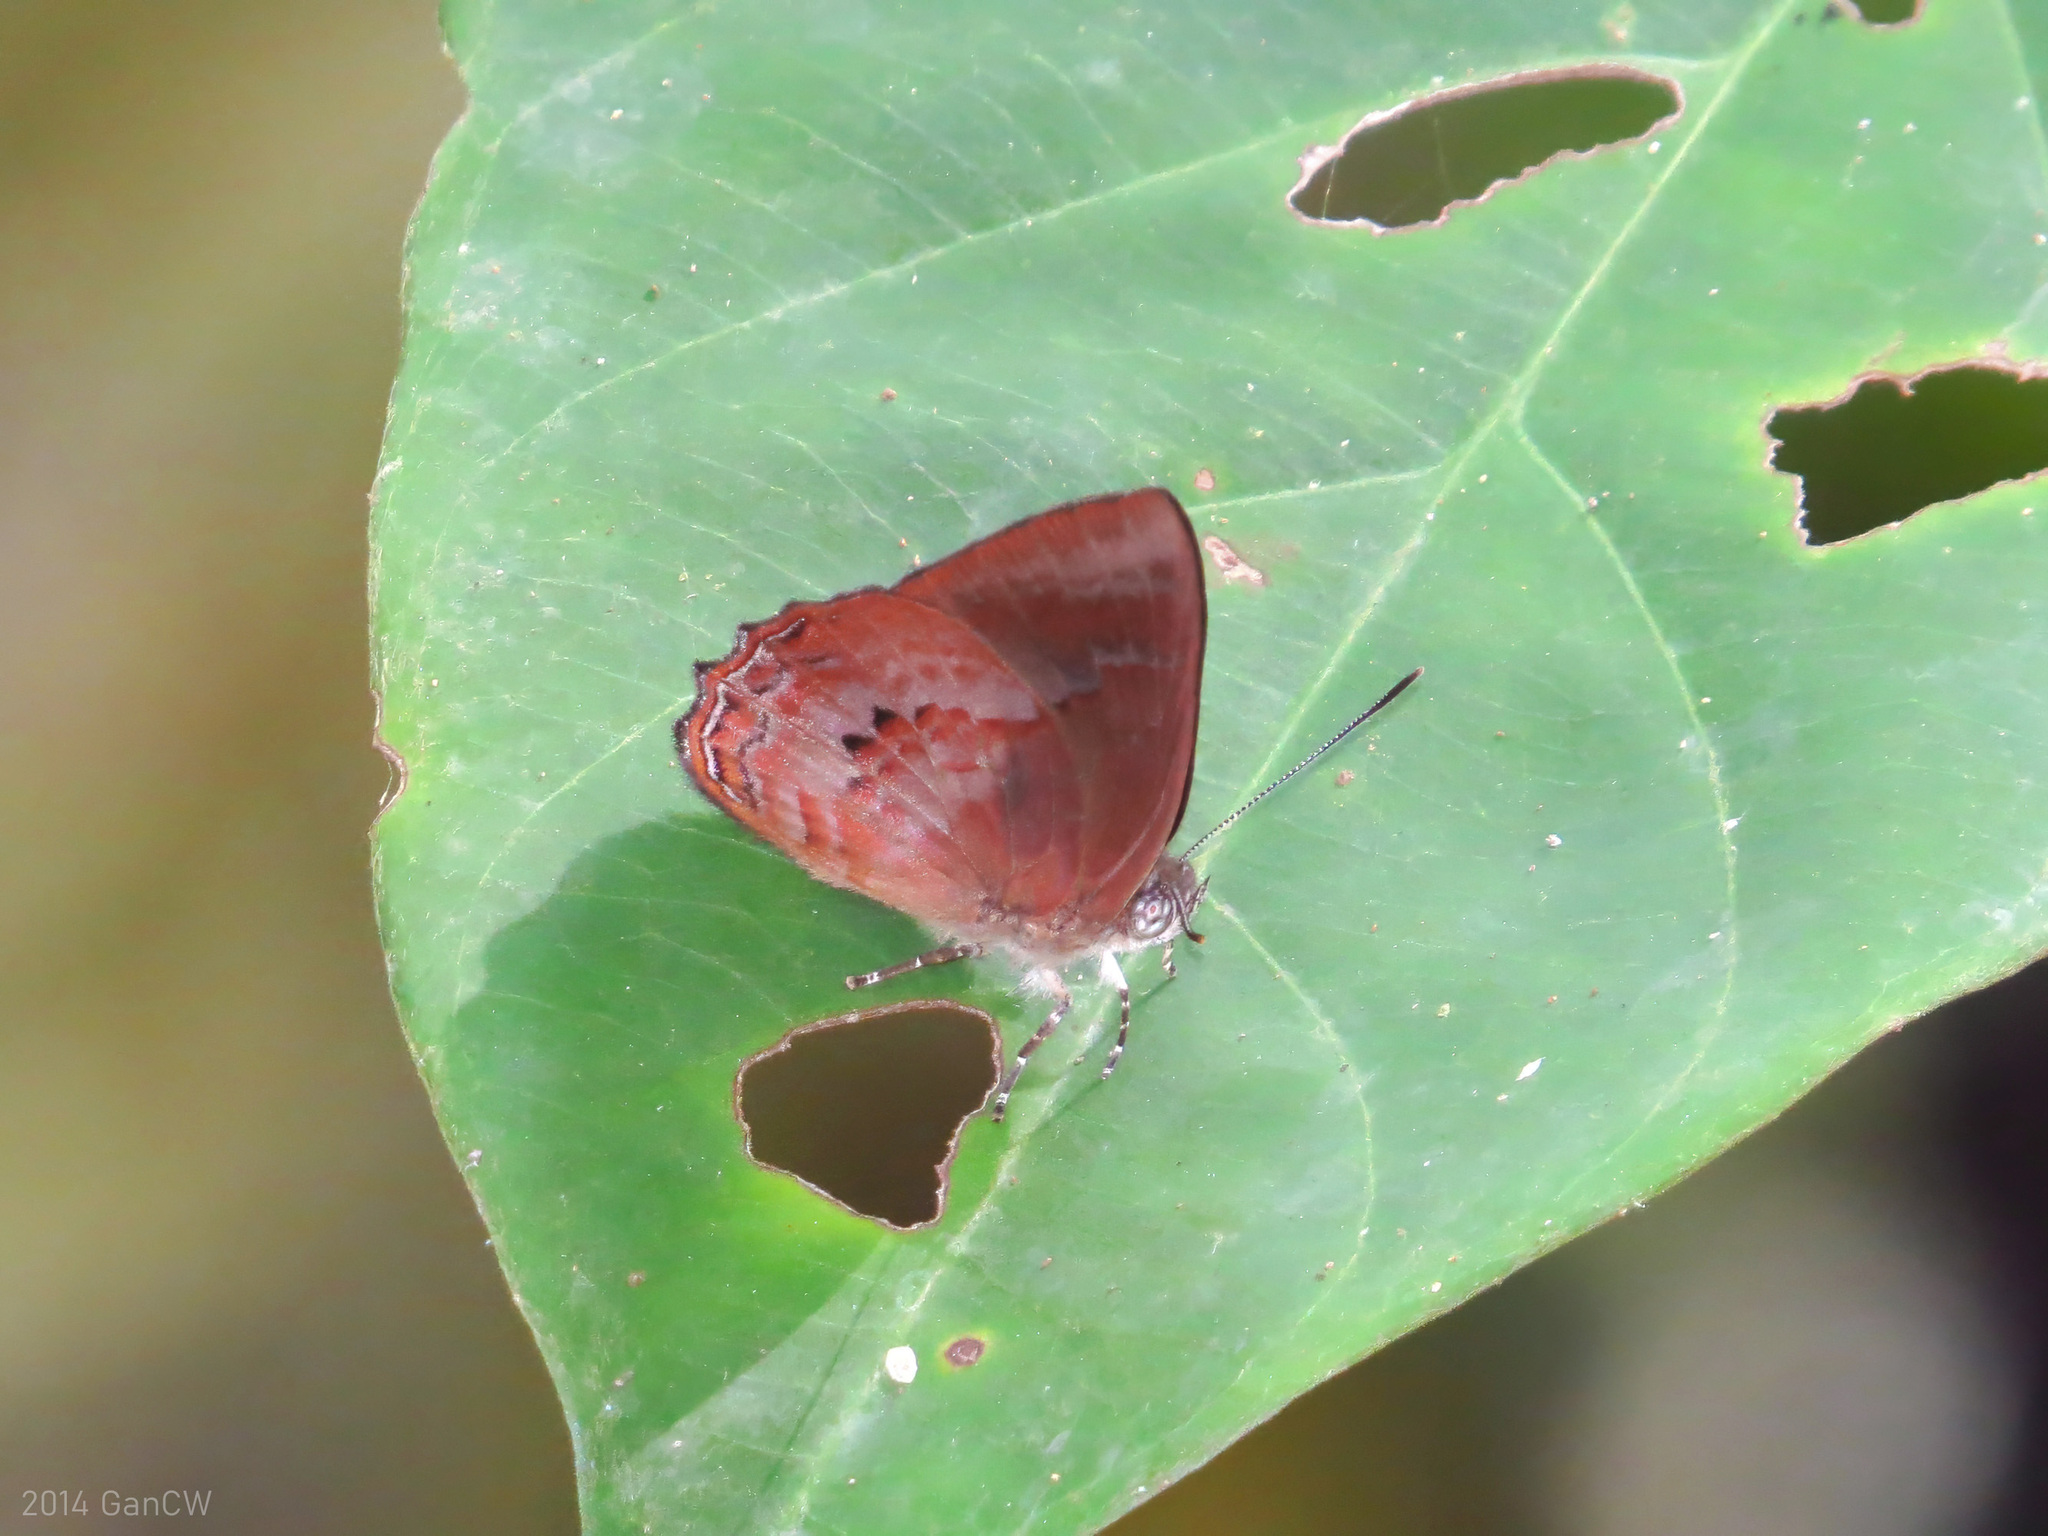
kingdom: Animalia
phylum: Arthropoda
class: Insecta
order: Lepidoptera
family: Lycaenidae
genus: Simiskina
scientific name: Simiskina
